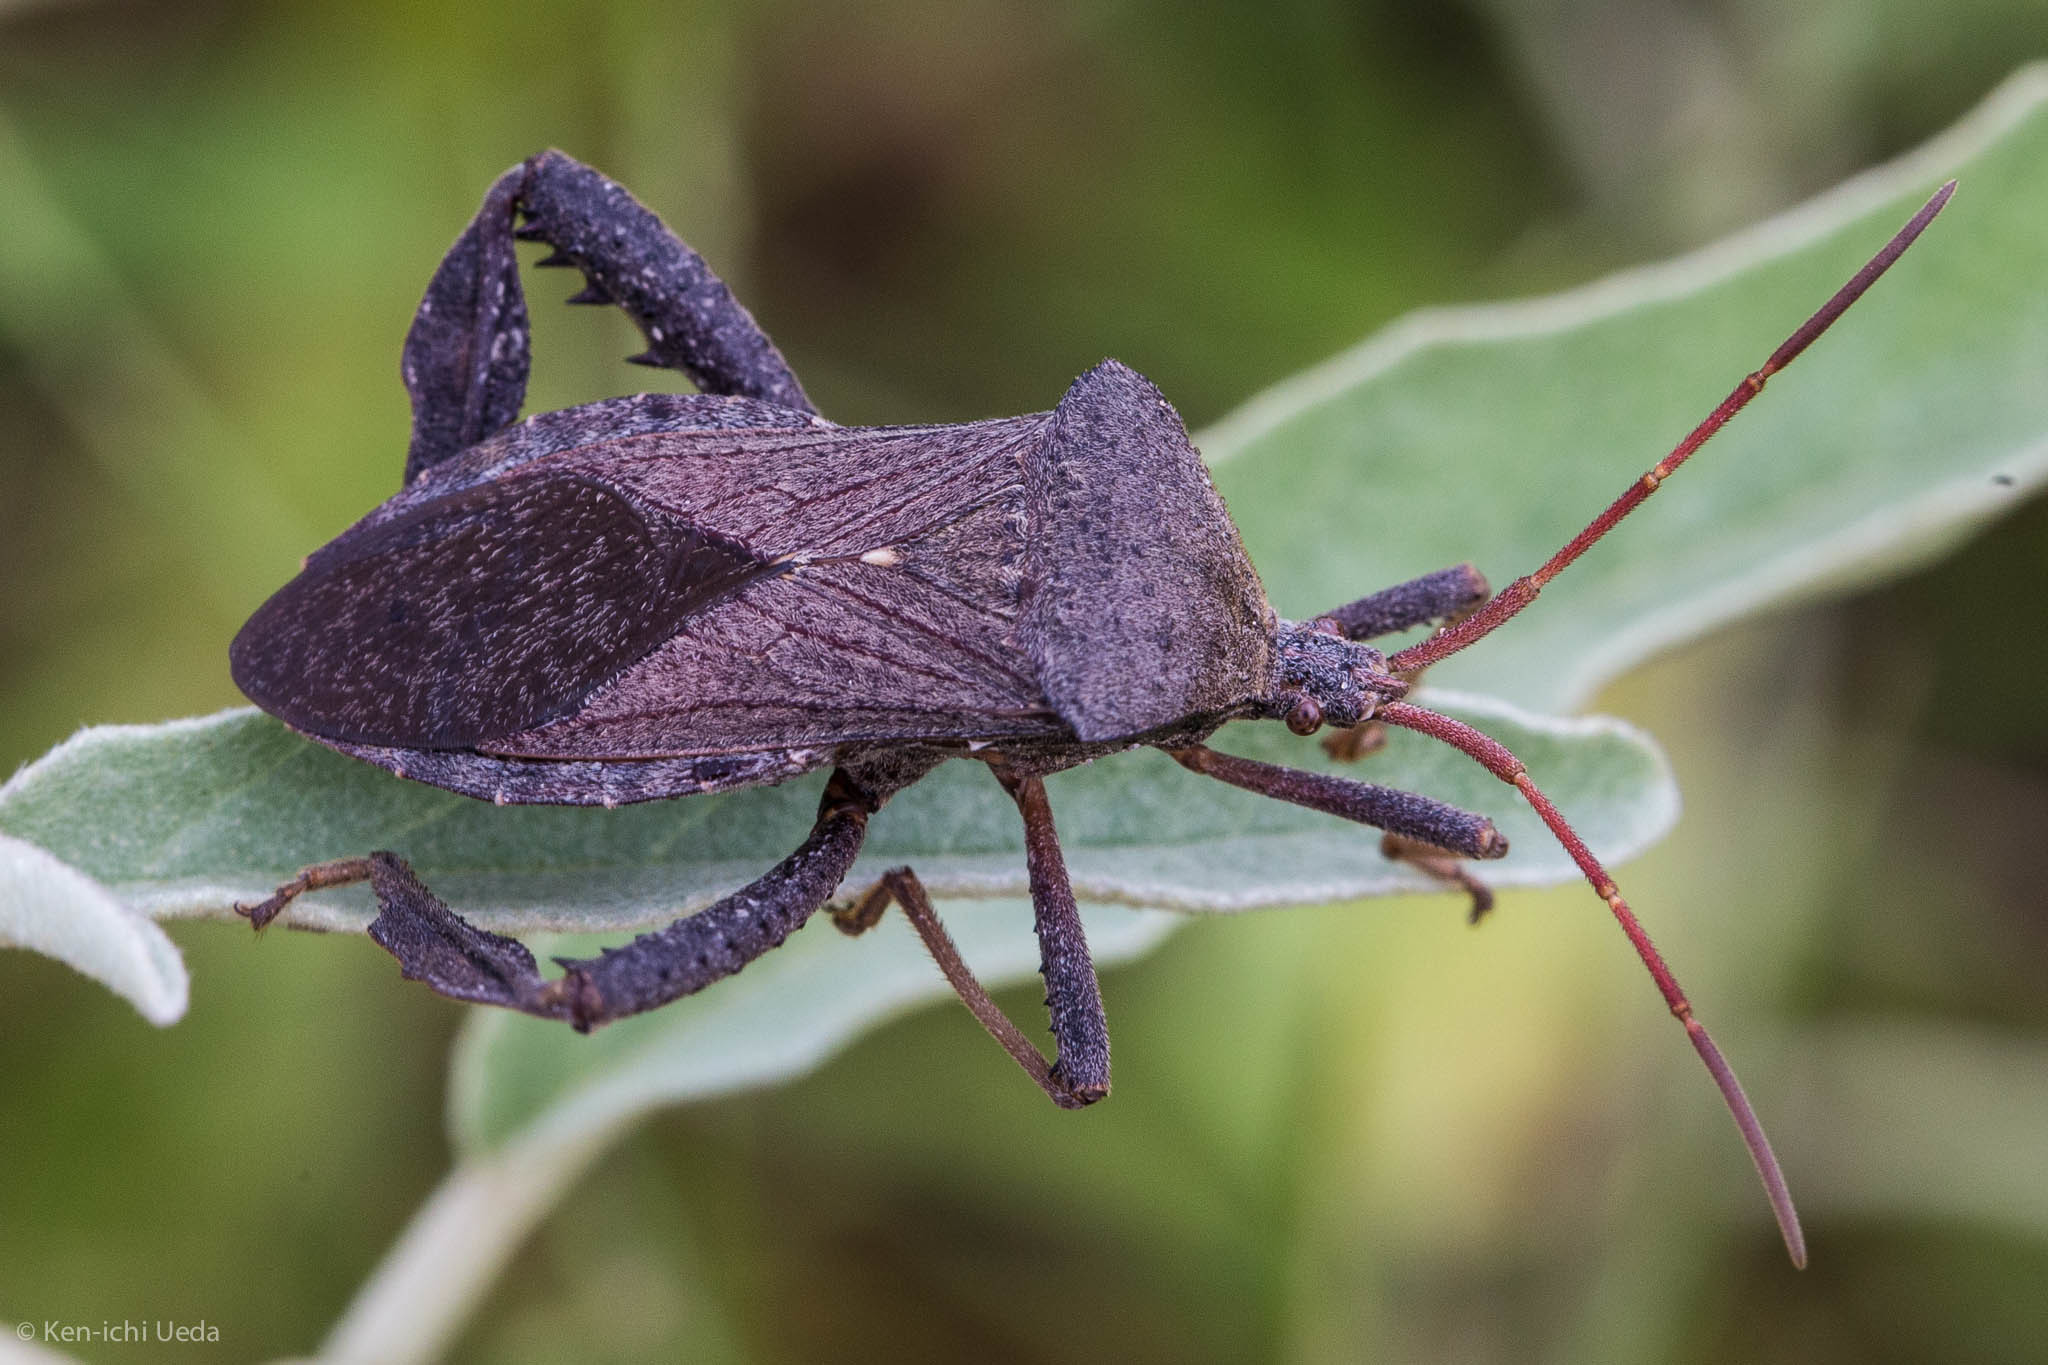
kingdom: Animalia
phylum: Arthropoda
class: Insecta
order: Hemiptera
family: Coreidae
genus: Acanthocephala
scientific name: Acanthocephala femorata
